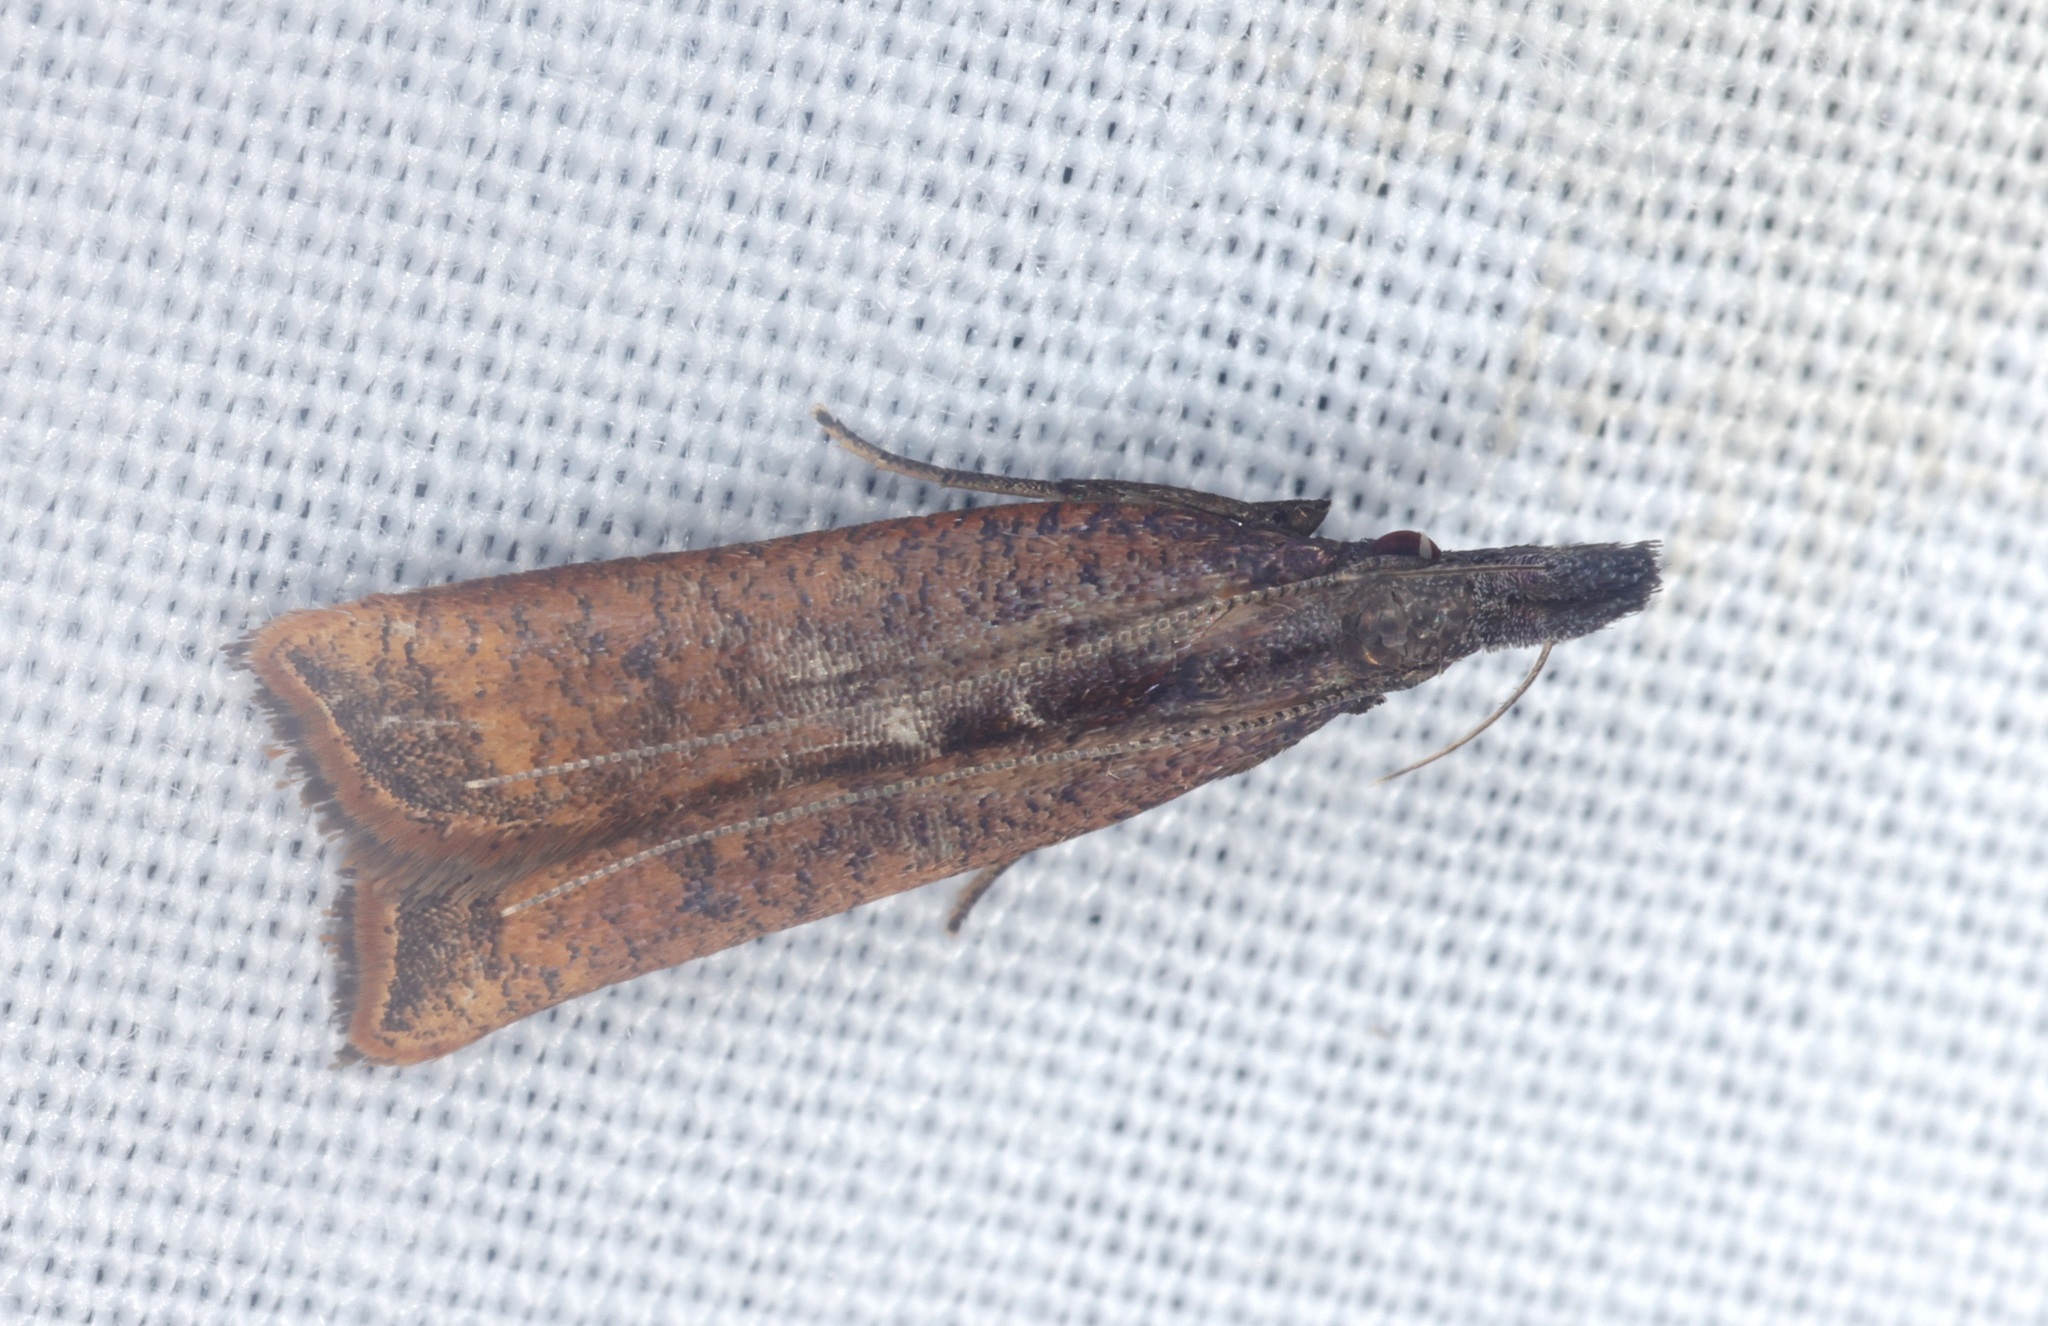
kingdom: Animalia
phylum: Arthropoda
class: Insecta
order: Lepidoptera
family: Gelechiidae
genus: Dichomeris
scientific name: Dichomeris zonata
